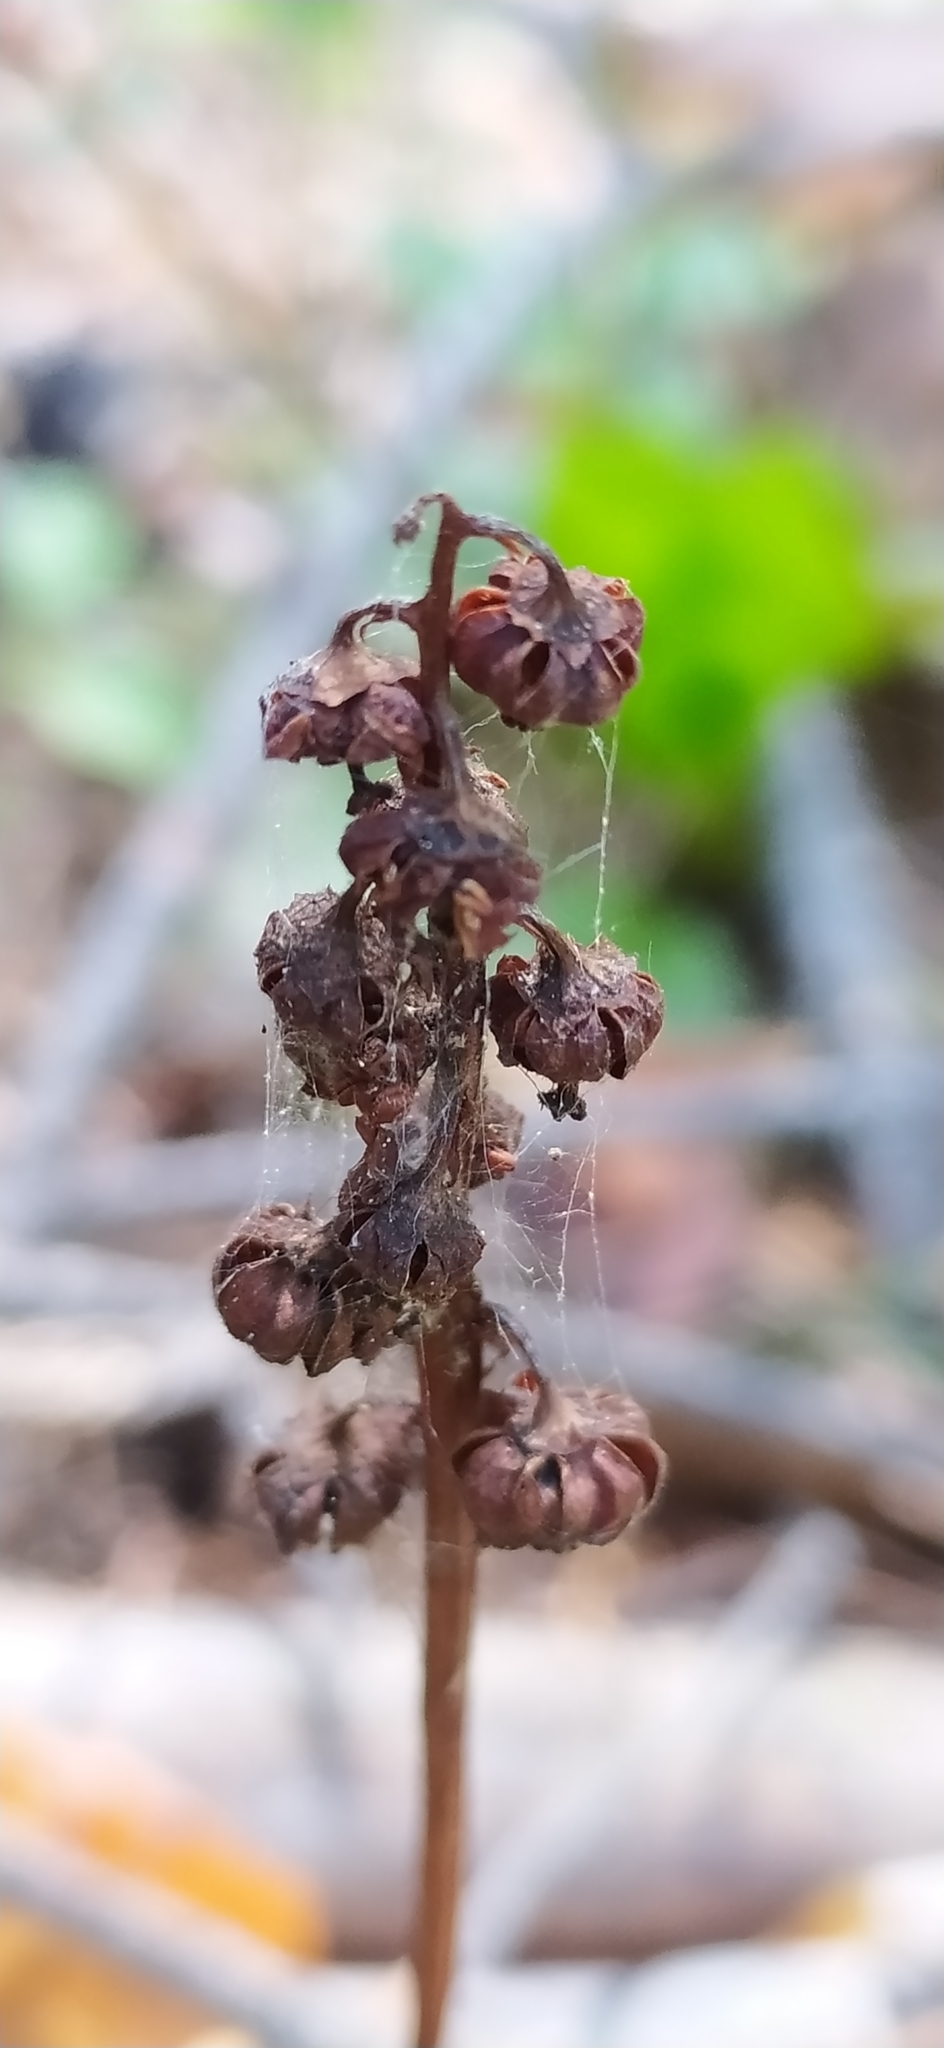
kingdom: Plantae
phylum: Tracheophyta
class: Magnoliopsida
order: Ericales
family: Ericaceae
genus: Pyrola
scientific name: Pyrola minor
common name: Common wintergreen
